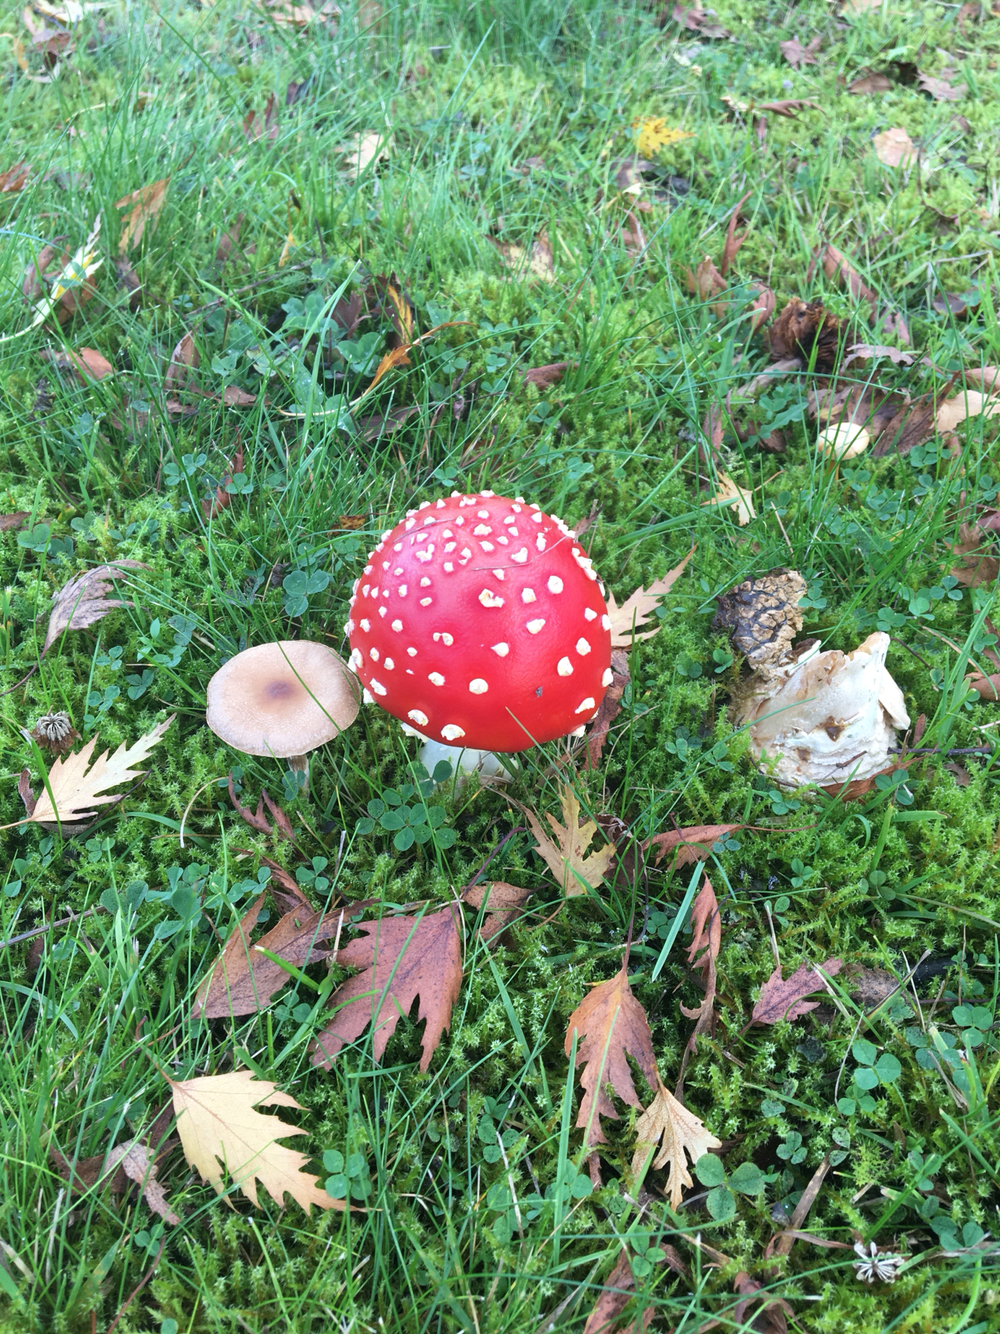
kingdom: Fungi
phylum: Basidiomycota
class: Agaricomycetes
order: Agaricales
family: Amanitaceae
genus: Amanita
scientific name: Amanita muscaria
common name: Fly agaric
